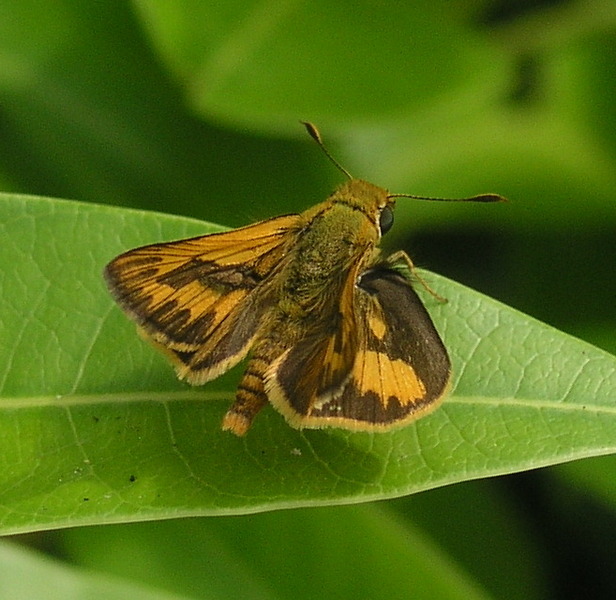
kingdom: Animalia
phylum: Arthropoda
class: Insecta
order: Lepidoptera
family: Hesperiidae
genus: Telicota
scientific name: Telicota colon
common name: Pale palm dart
